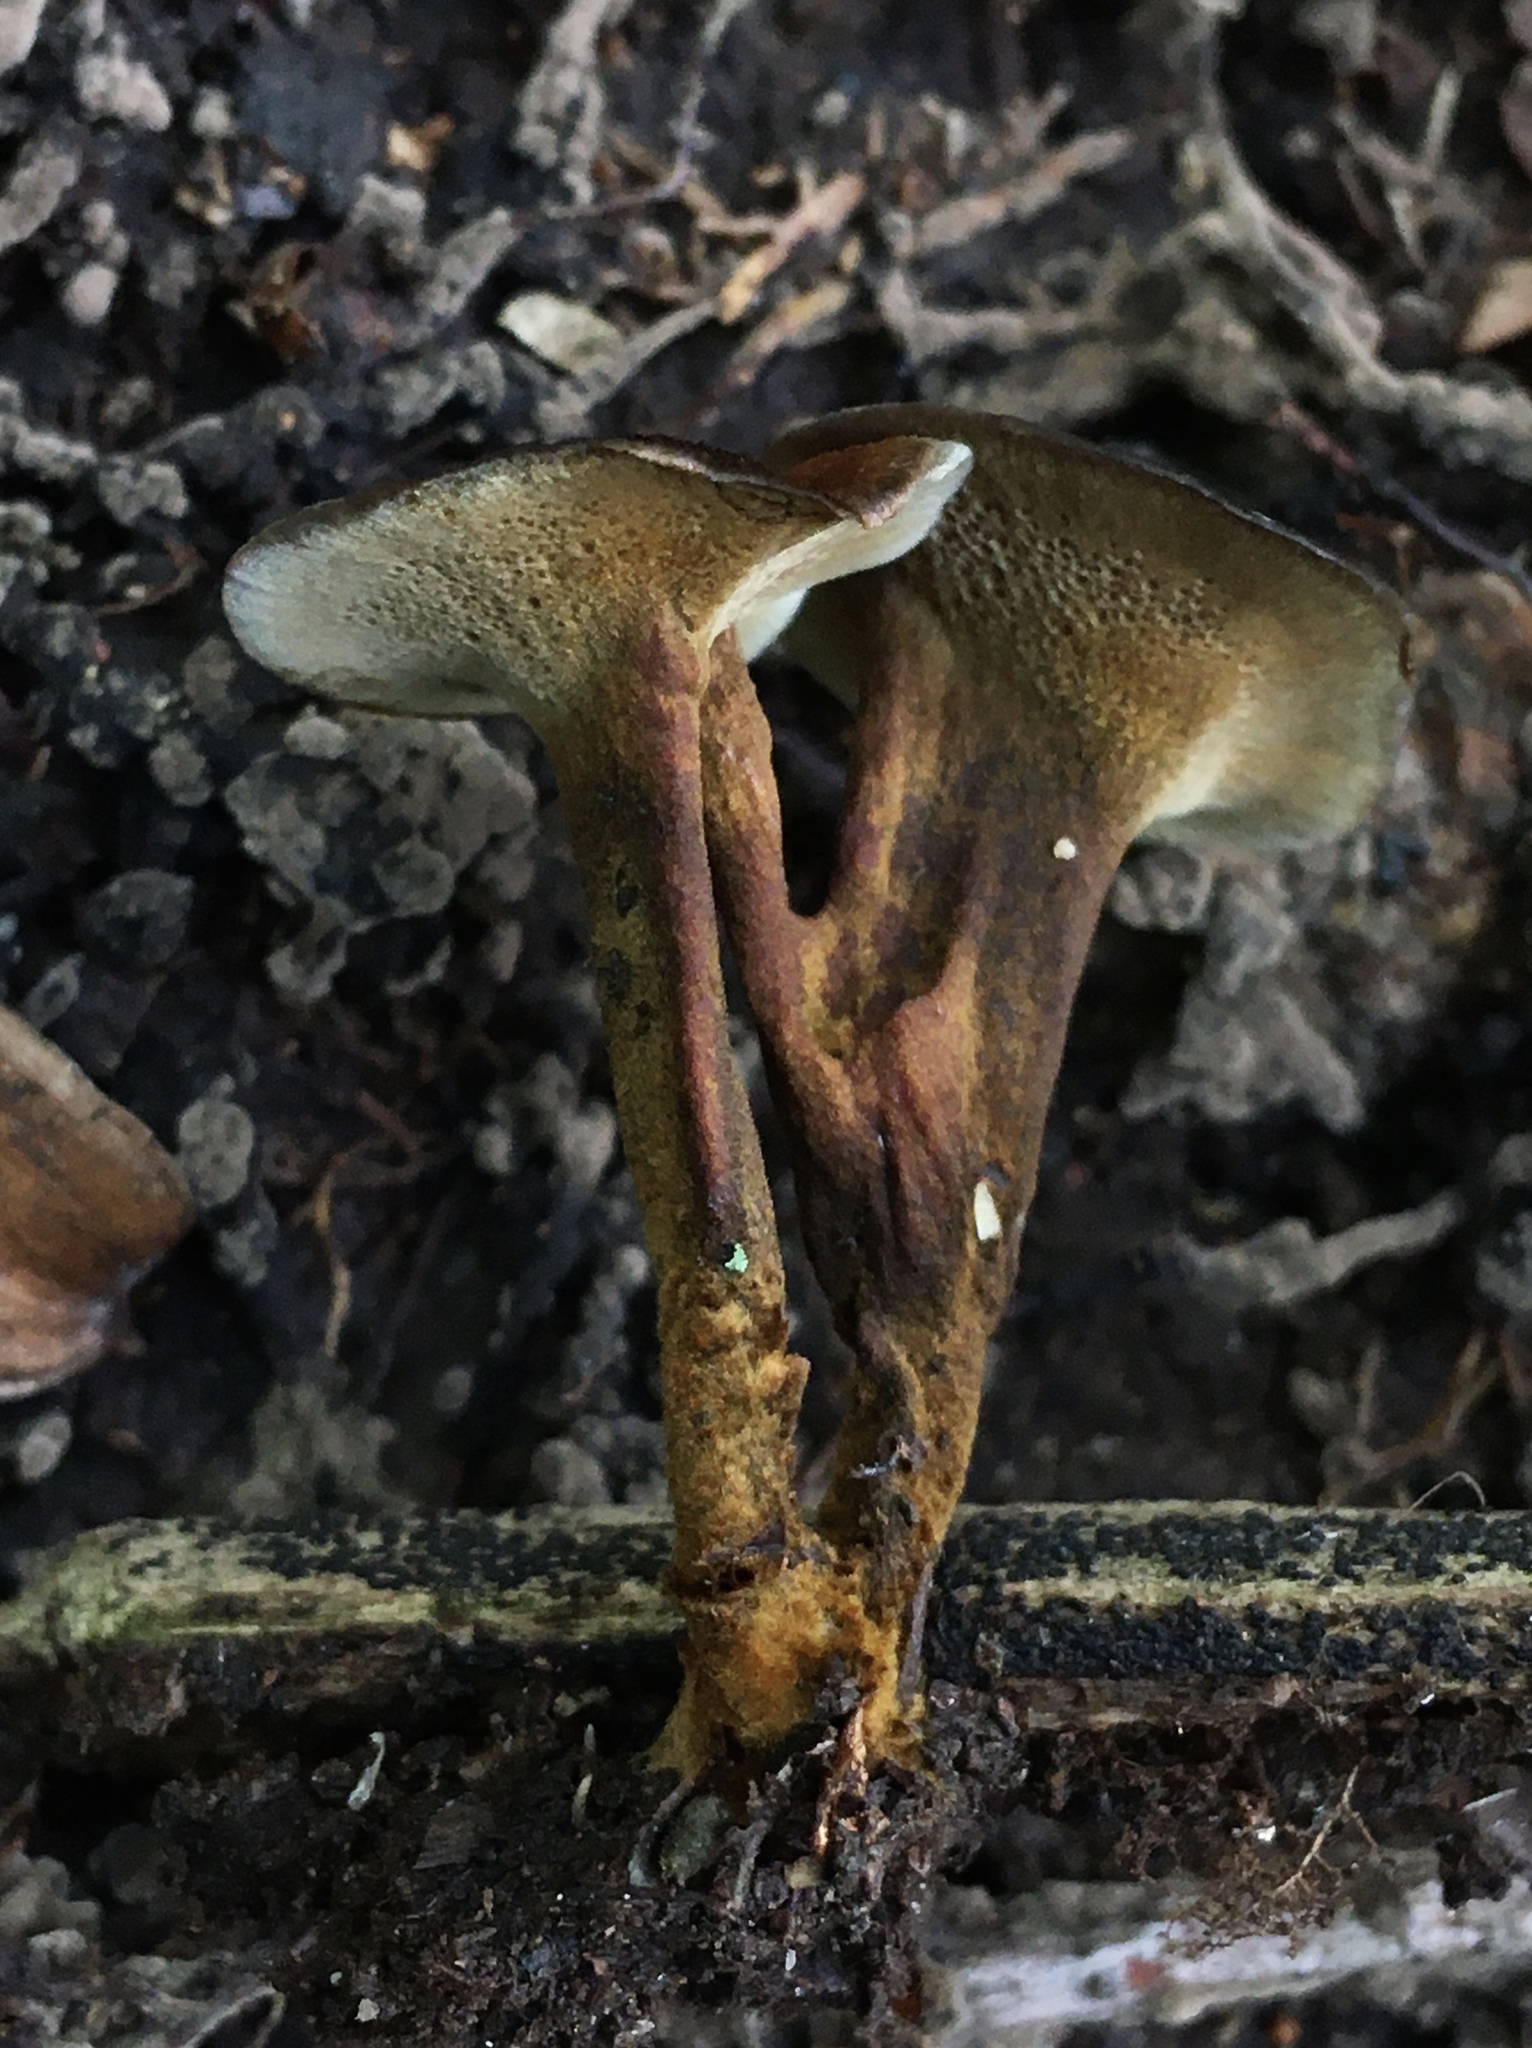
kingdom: Fungi
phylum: Basidiomycota
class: Agaricomycetes
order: Hymenochaetales
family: Hymenochaetaceae
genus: Coltricia
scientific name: Coltricia cinnamomea
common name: Shiny cinnamon polypore
